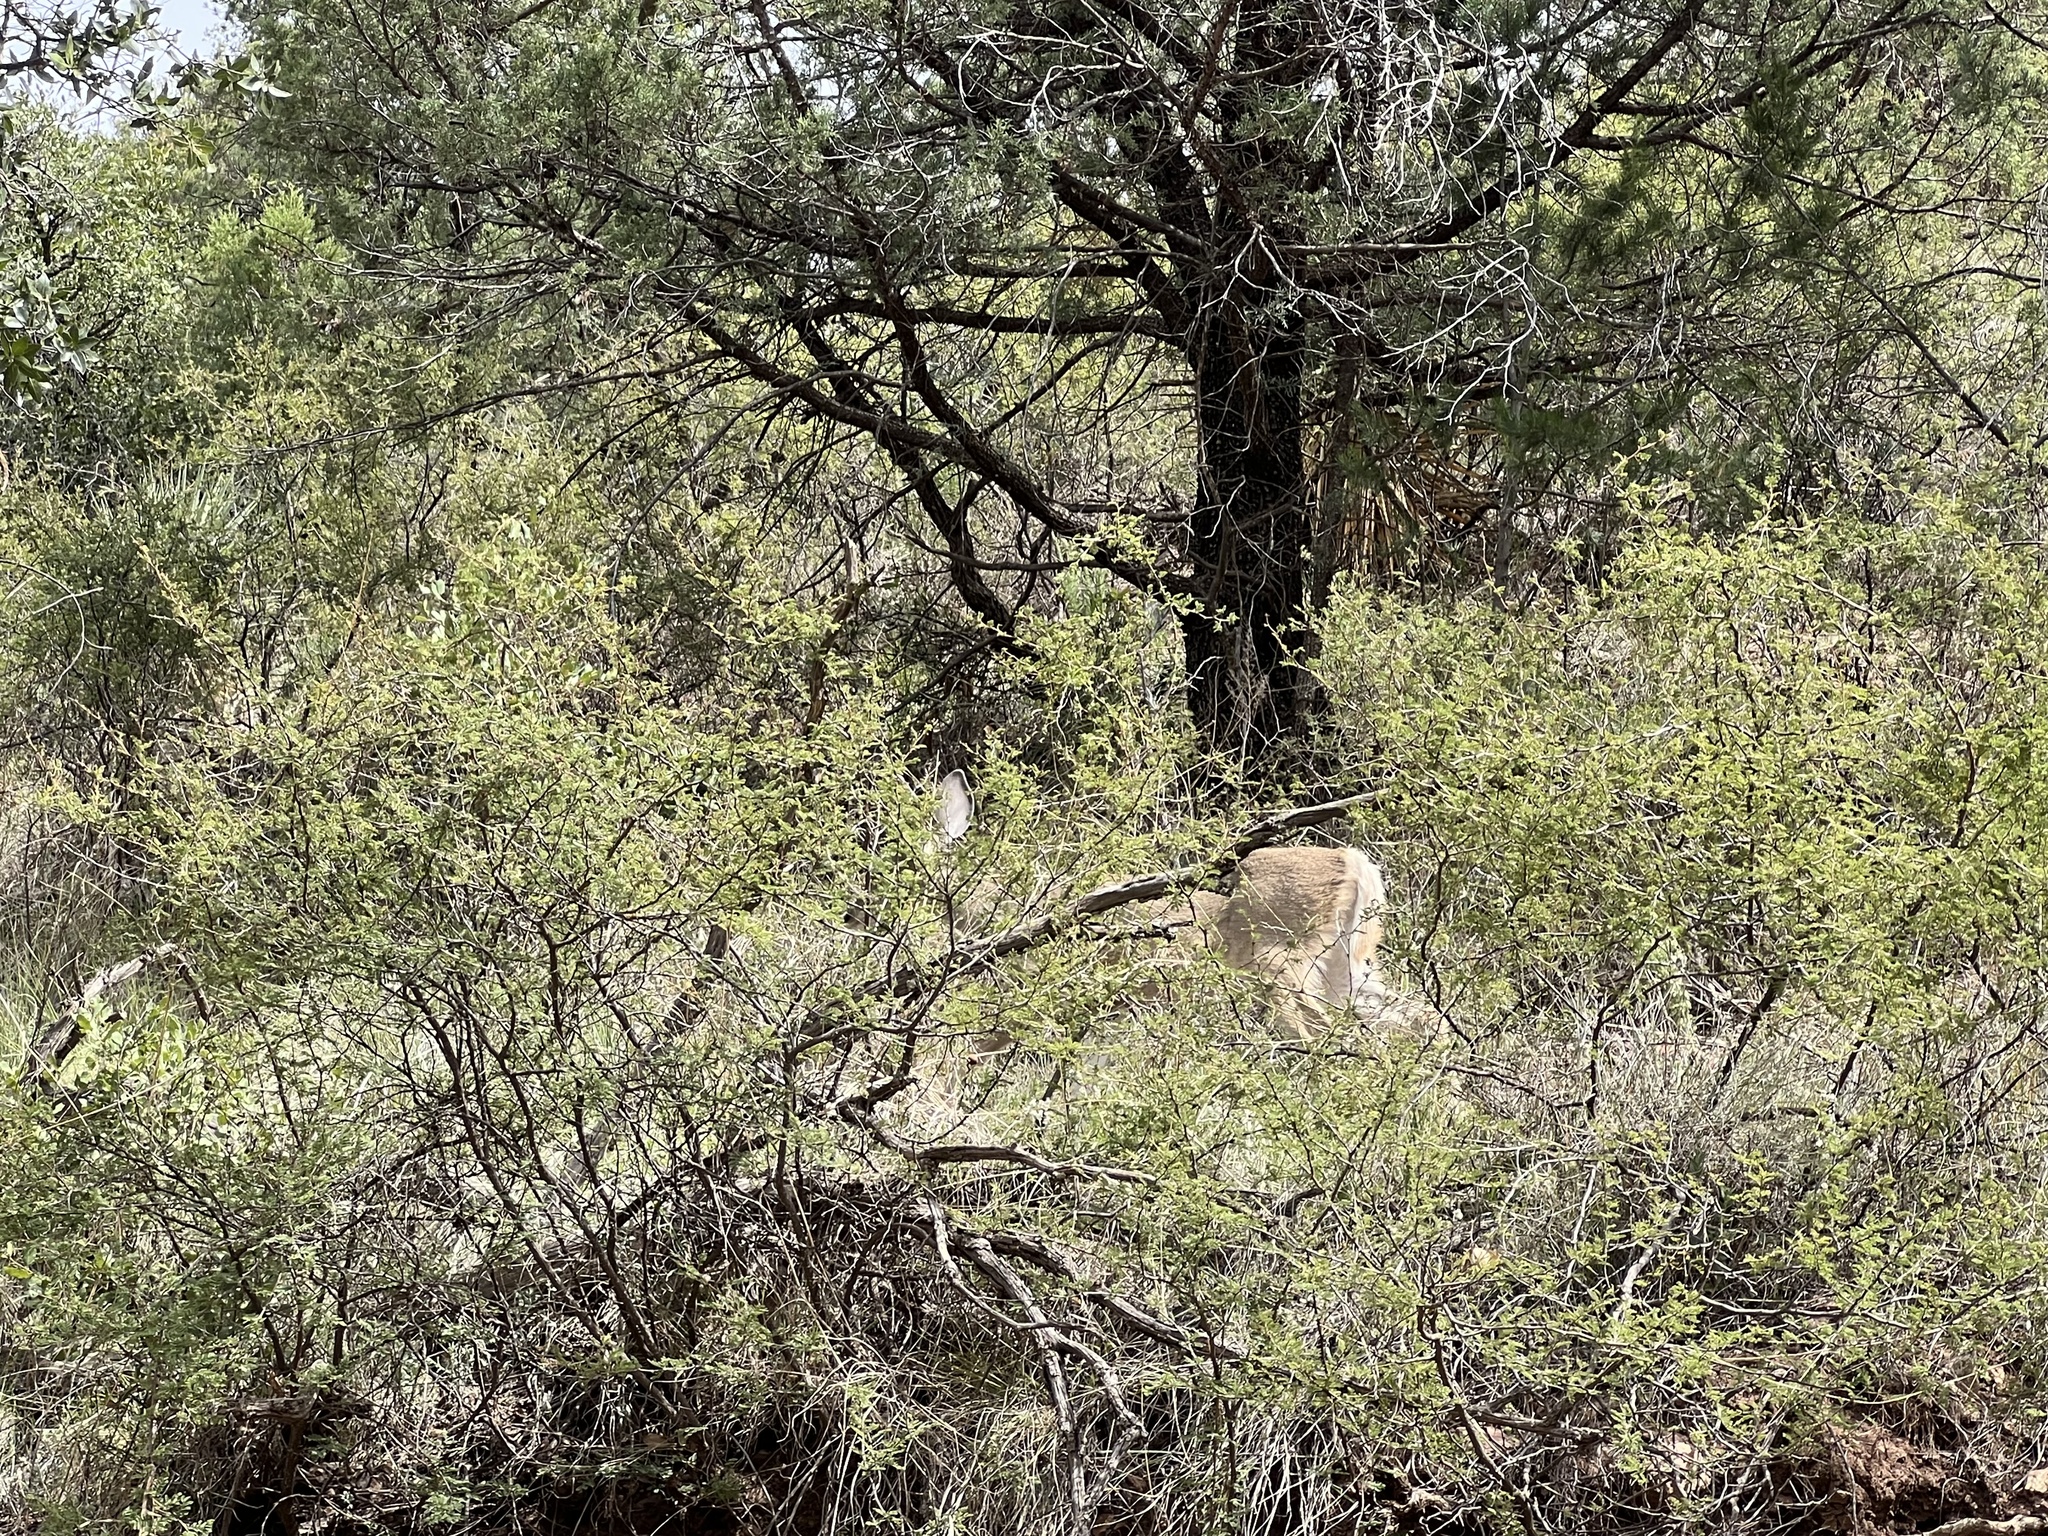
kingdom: Animalia
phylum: Chordata
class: Mammalia
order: Artiodactyla
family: Cervidae
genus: Odocoileus
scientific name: Odocoileus virginianus
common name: White-tailed deer
